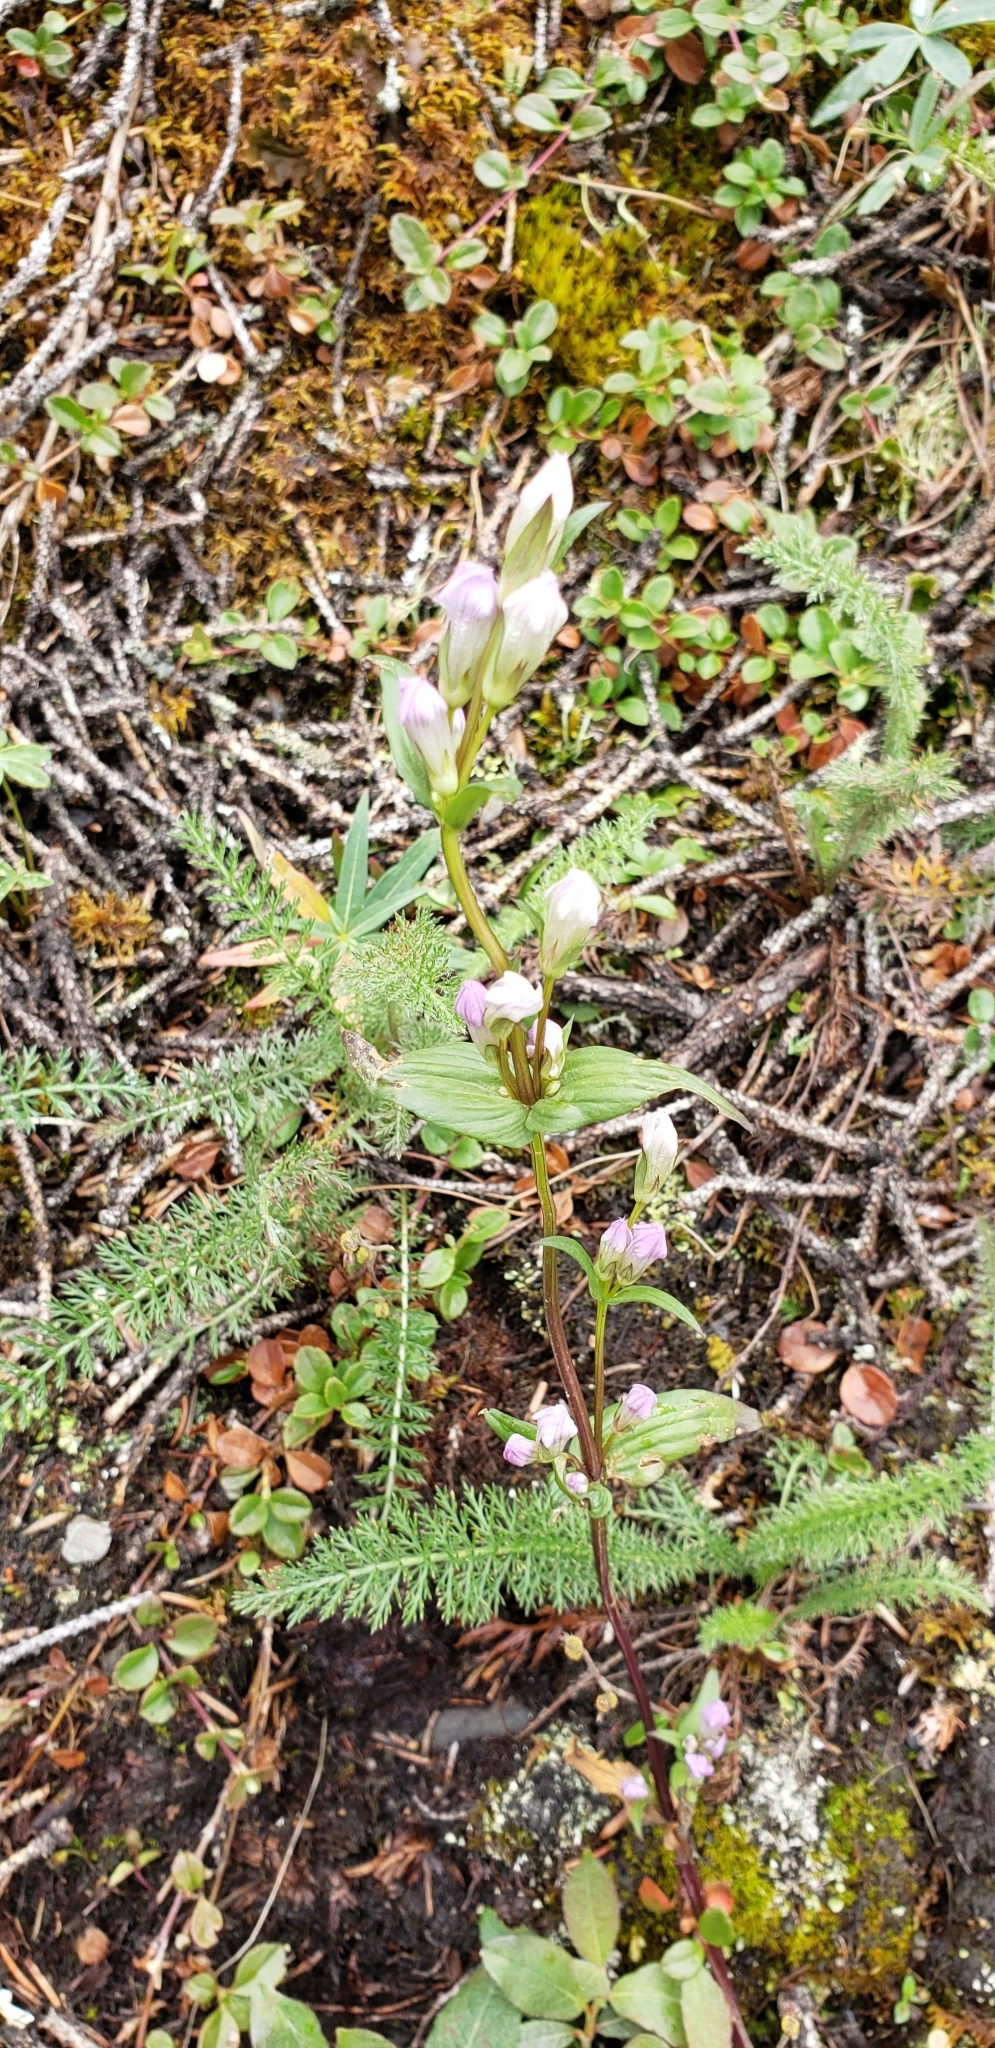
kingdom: Plantae
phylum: Tracheophyta
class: Magnoliopsida
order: Gentianales
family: Gentianaceae
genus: Gentianella
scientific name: Gentianella propinqua
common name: Four-parted dwarf-gentian
